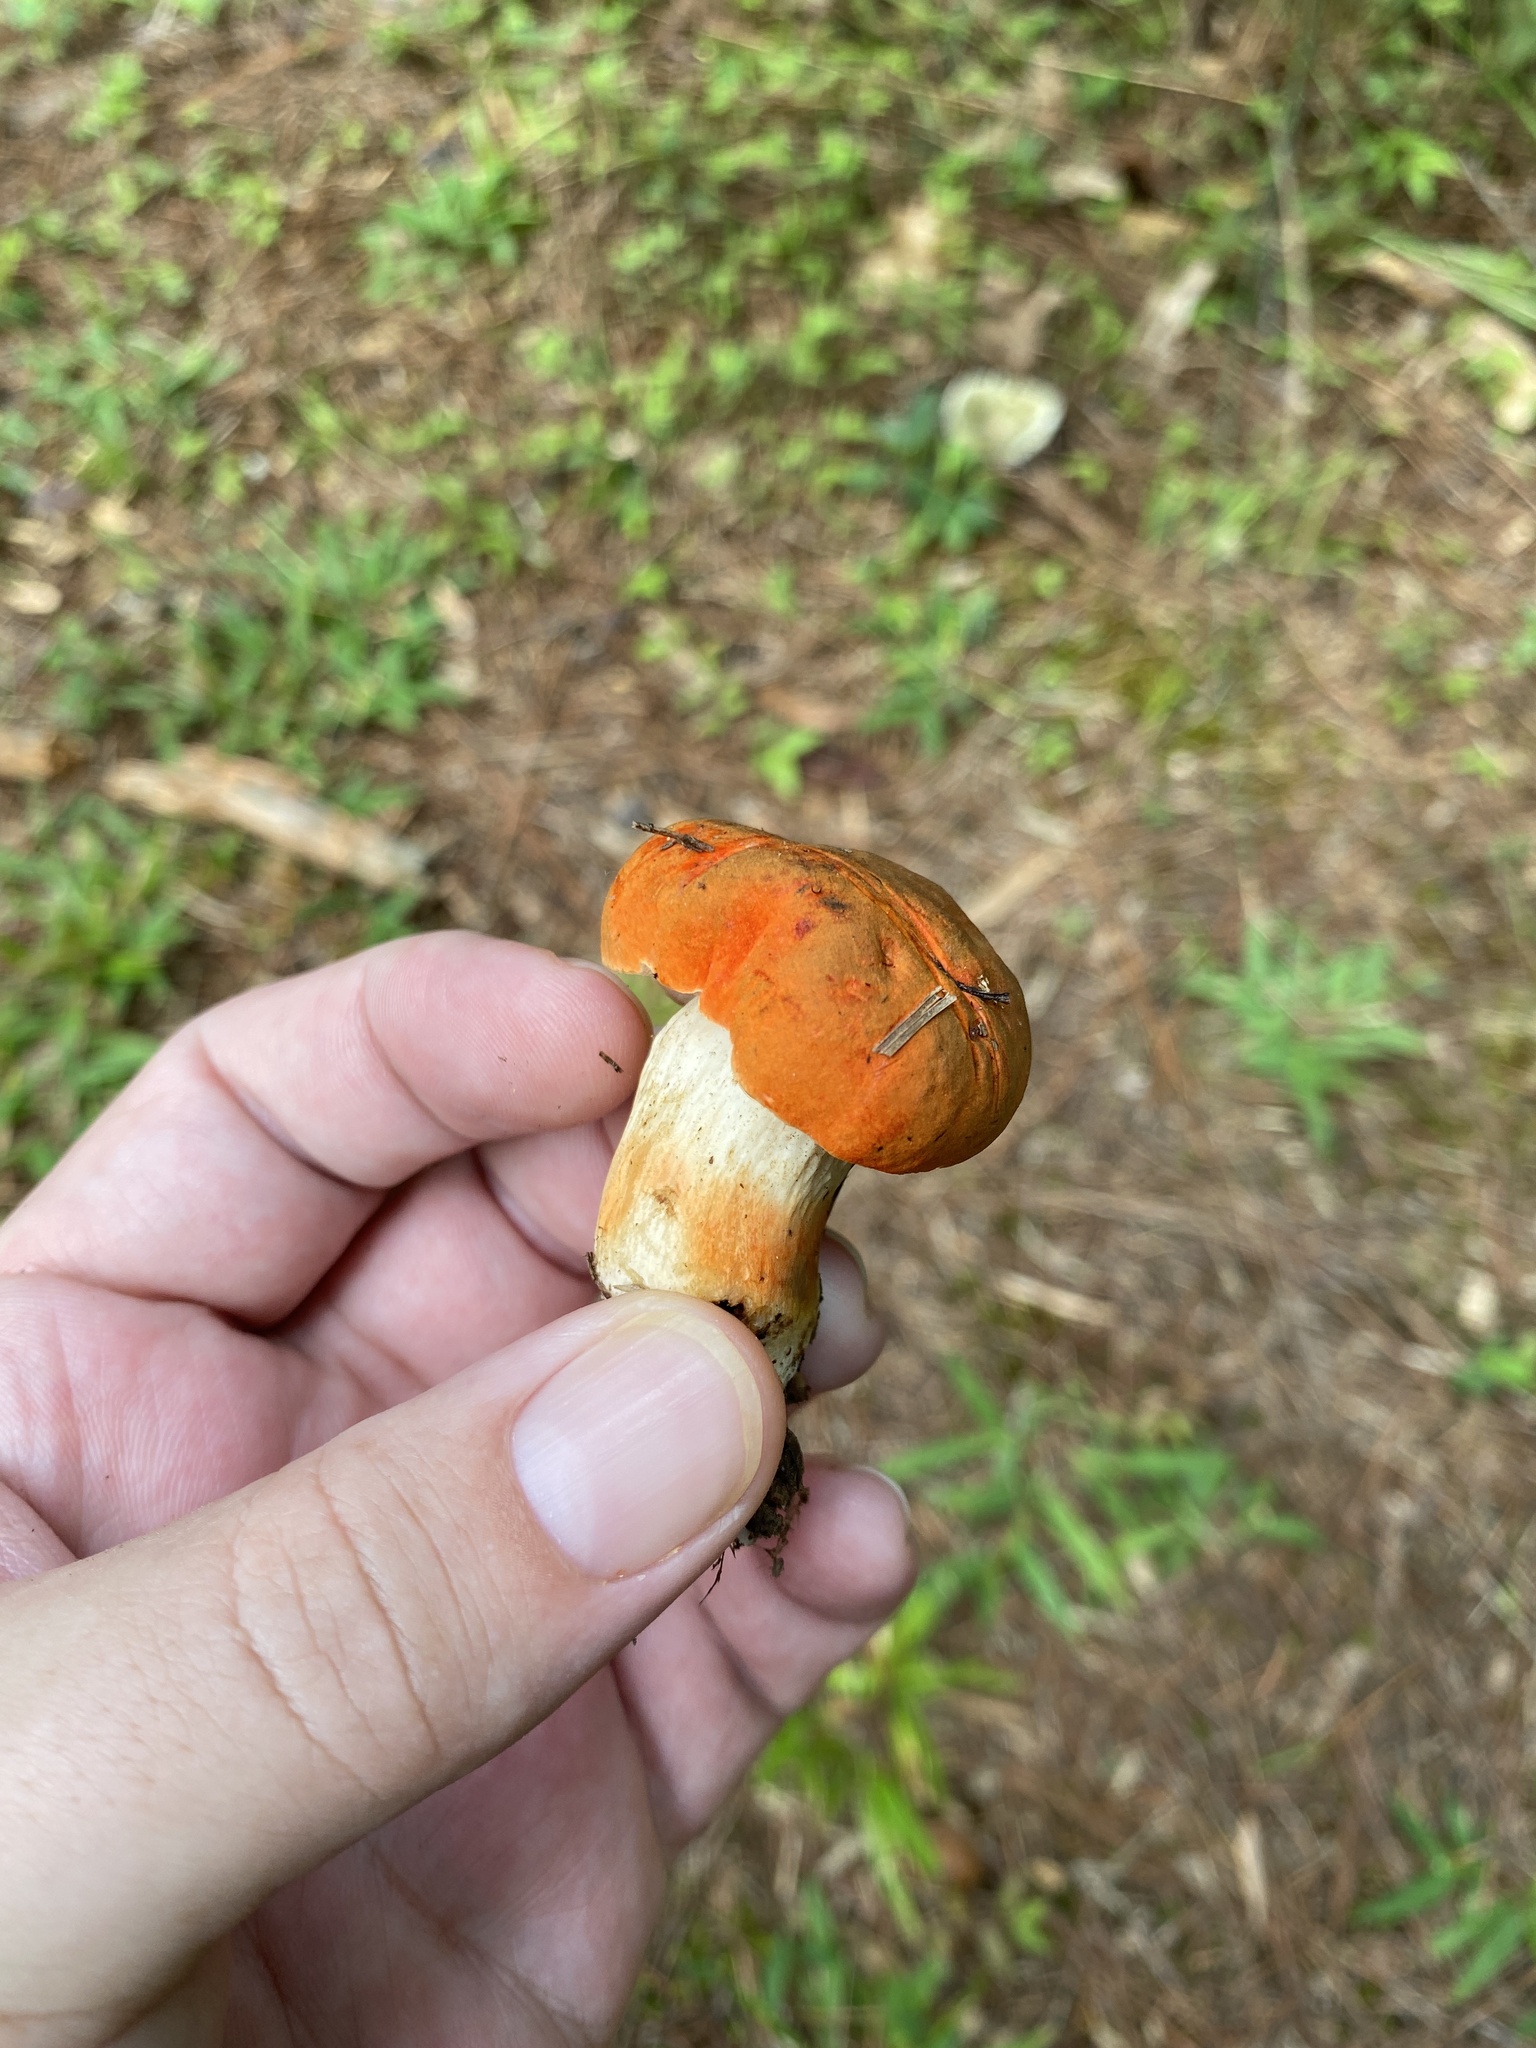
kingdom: Fungi
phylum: Basidiomycota
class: Agaricomycetes
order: Boletales
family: Boletaceae
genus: Tylopilus
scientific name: Tylopilus balloui
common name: Burnt-orange bolete
